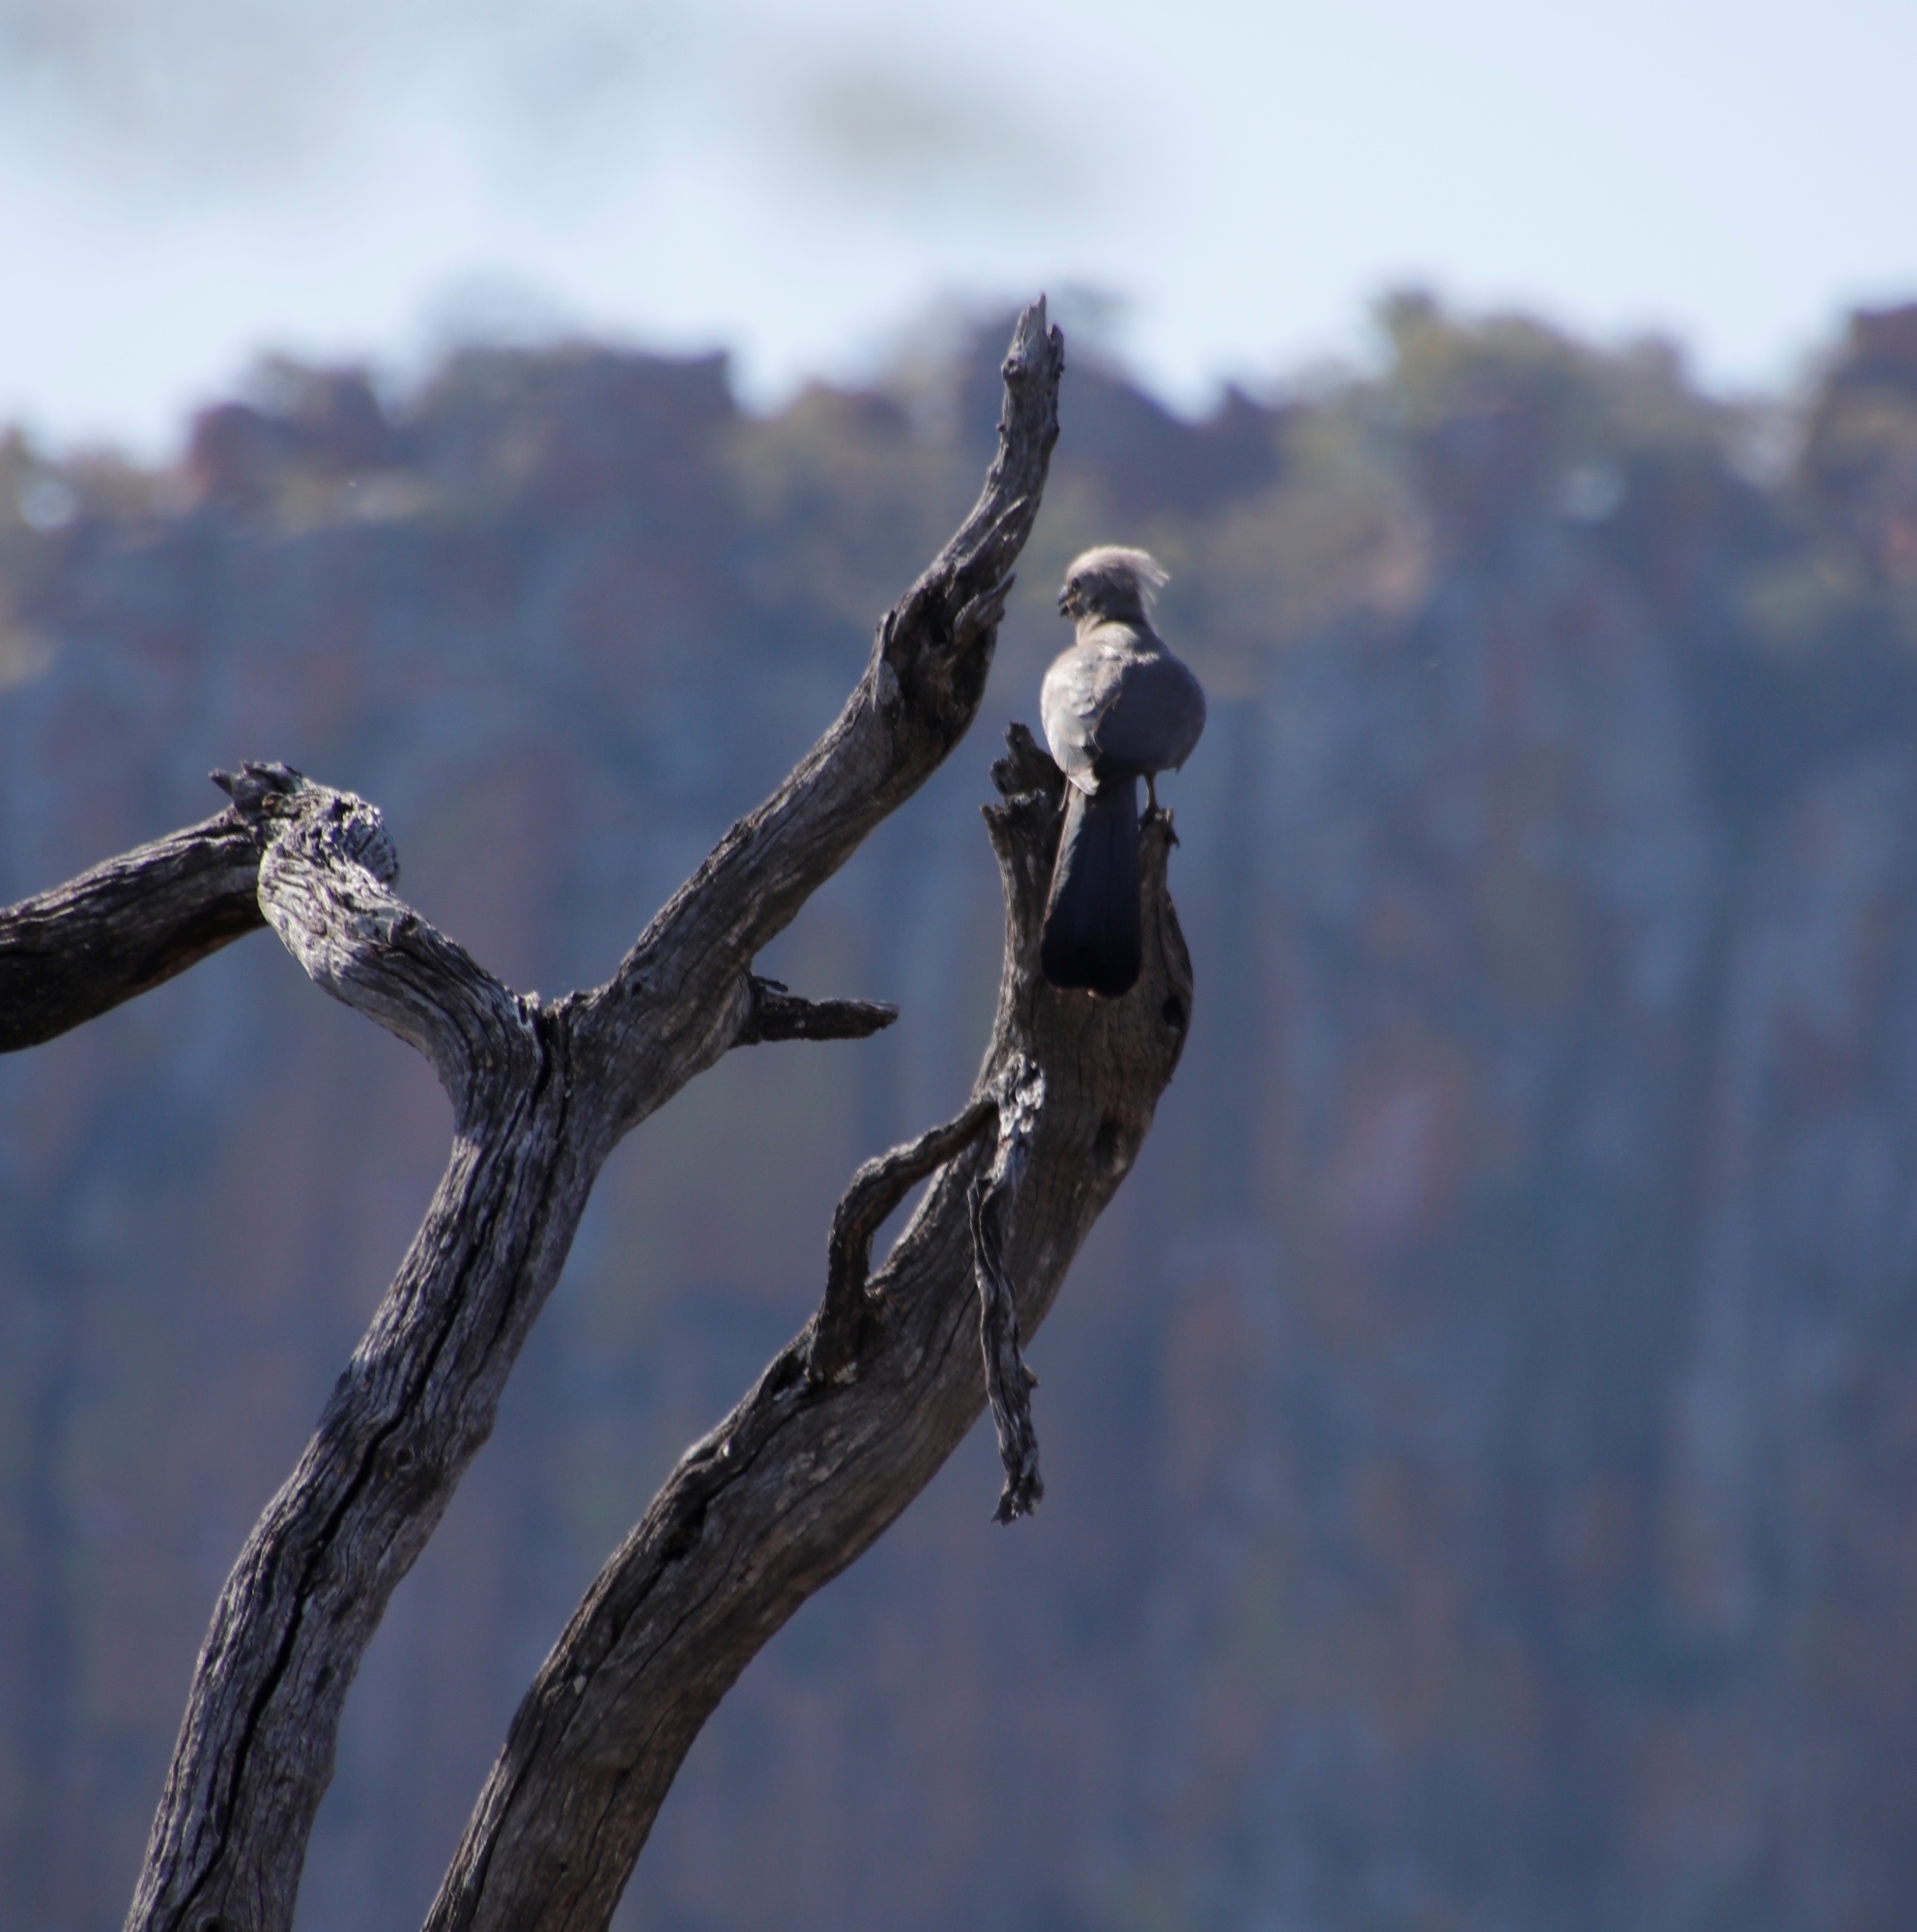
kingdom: Animalia
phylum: Chordata
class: Aves
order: Musophagiformes
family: Musophagidae
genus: Corythaixoides
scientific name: Corythaixoides concolor
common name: Grey go-away-bird
